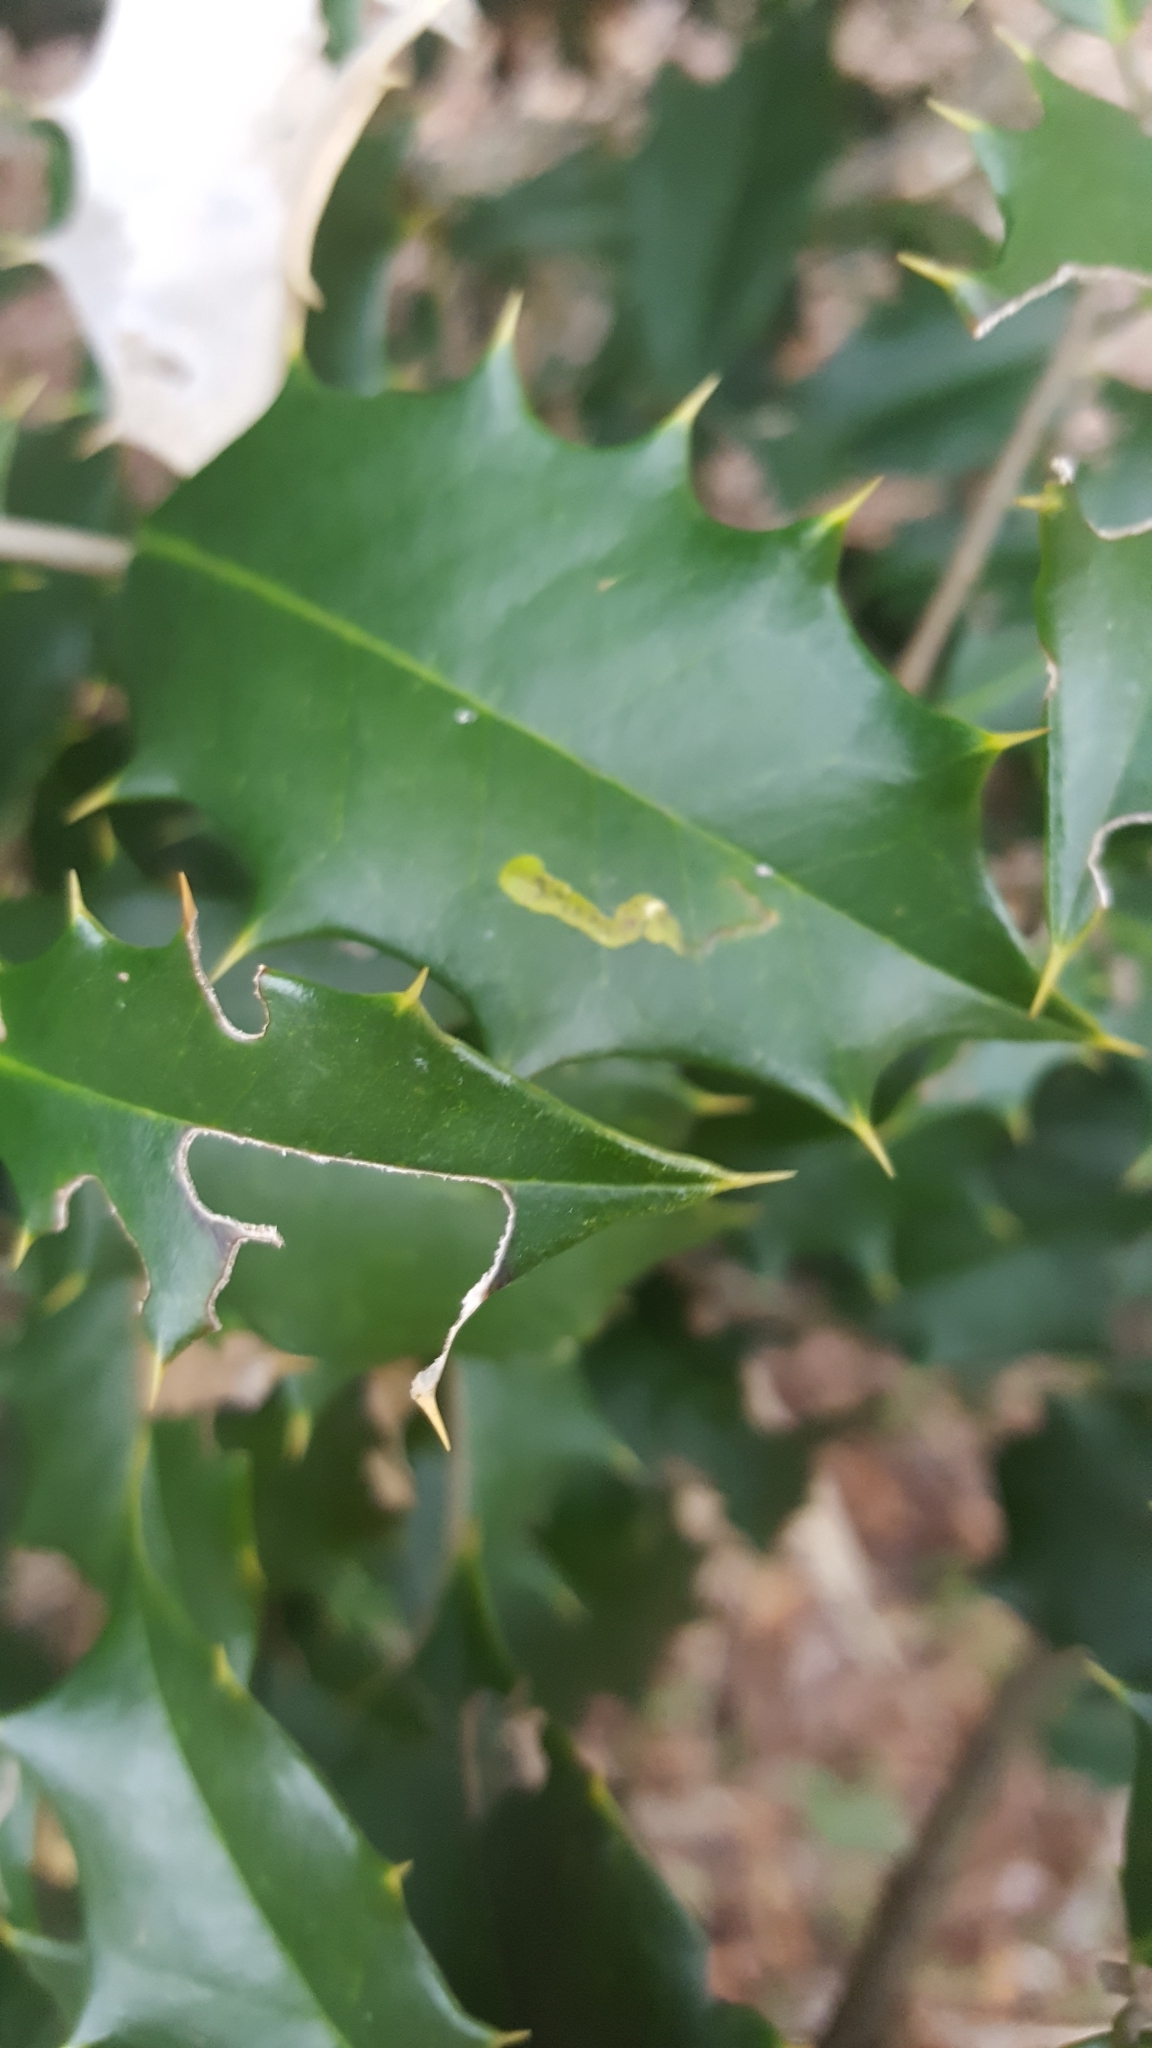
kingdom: Animalia
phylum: Arthropoda
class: Insecta
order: Diptera
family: Agromyzidae
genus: Phytomyza
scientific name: Phytomyza ilicicola
